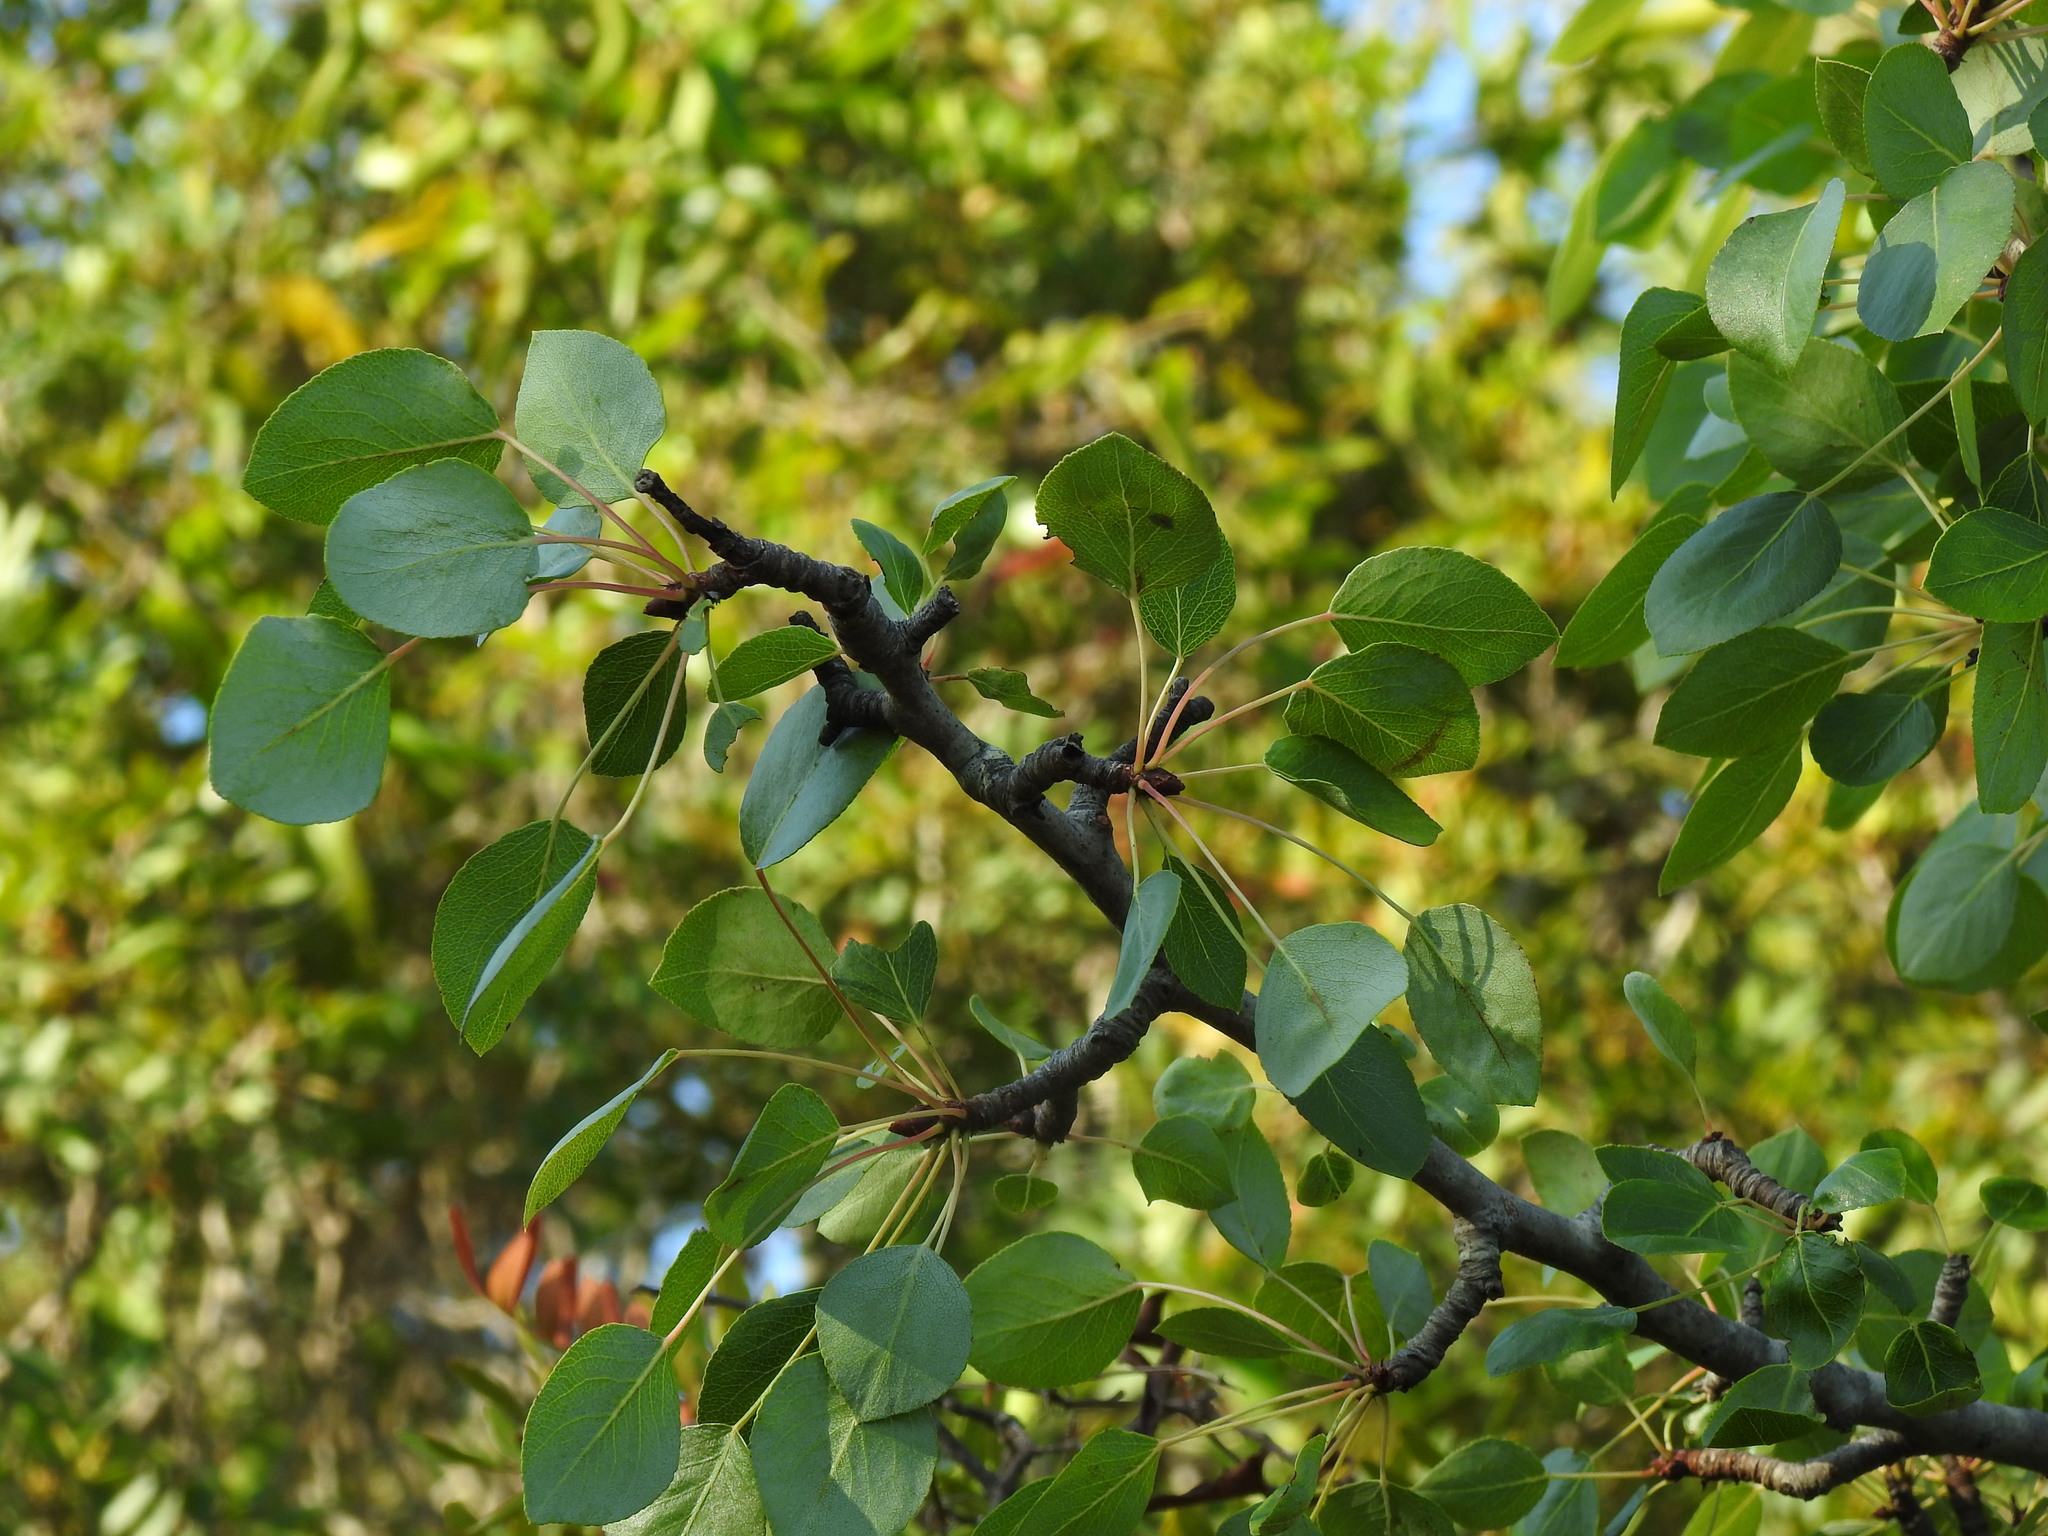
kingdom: Plantae
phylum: Tracheophyta
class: Magnoliopsida
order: Rosales
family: Rosaceae
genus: Pyrus
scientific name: Pyrus bourgaeana
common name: Iberian pear
